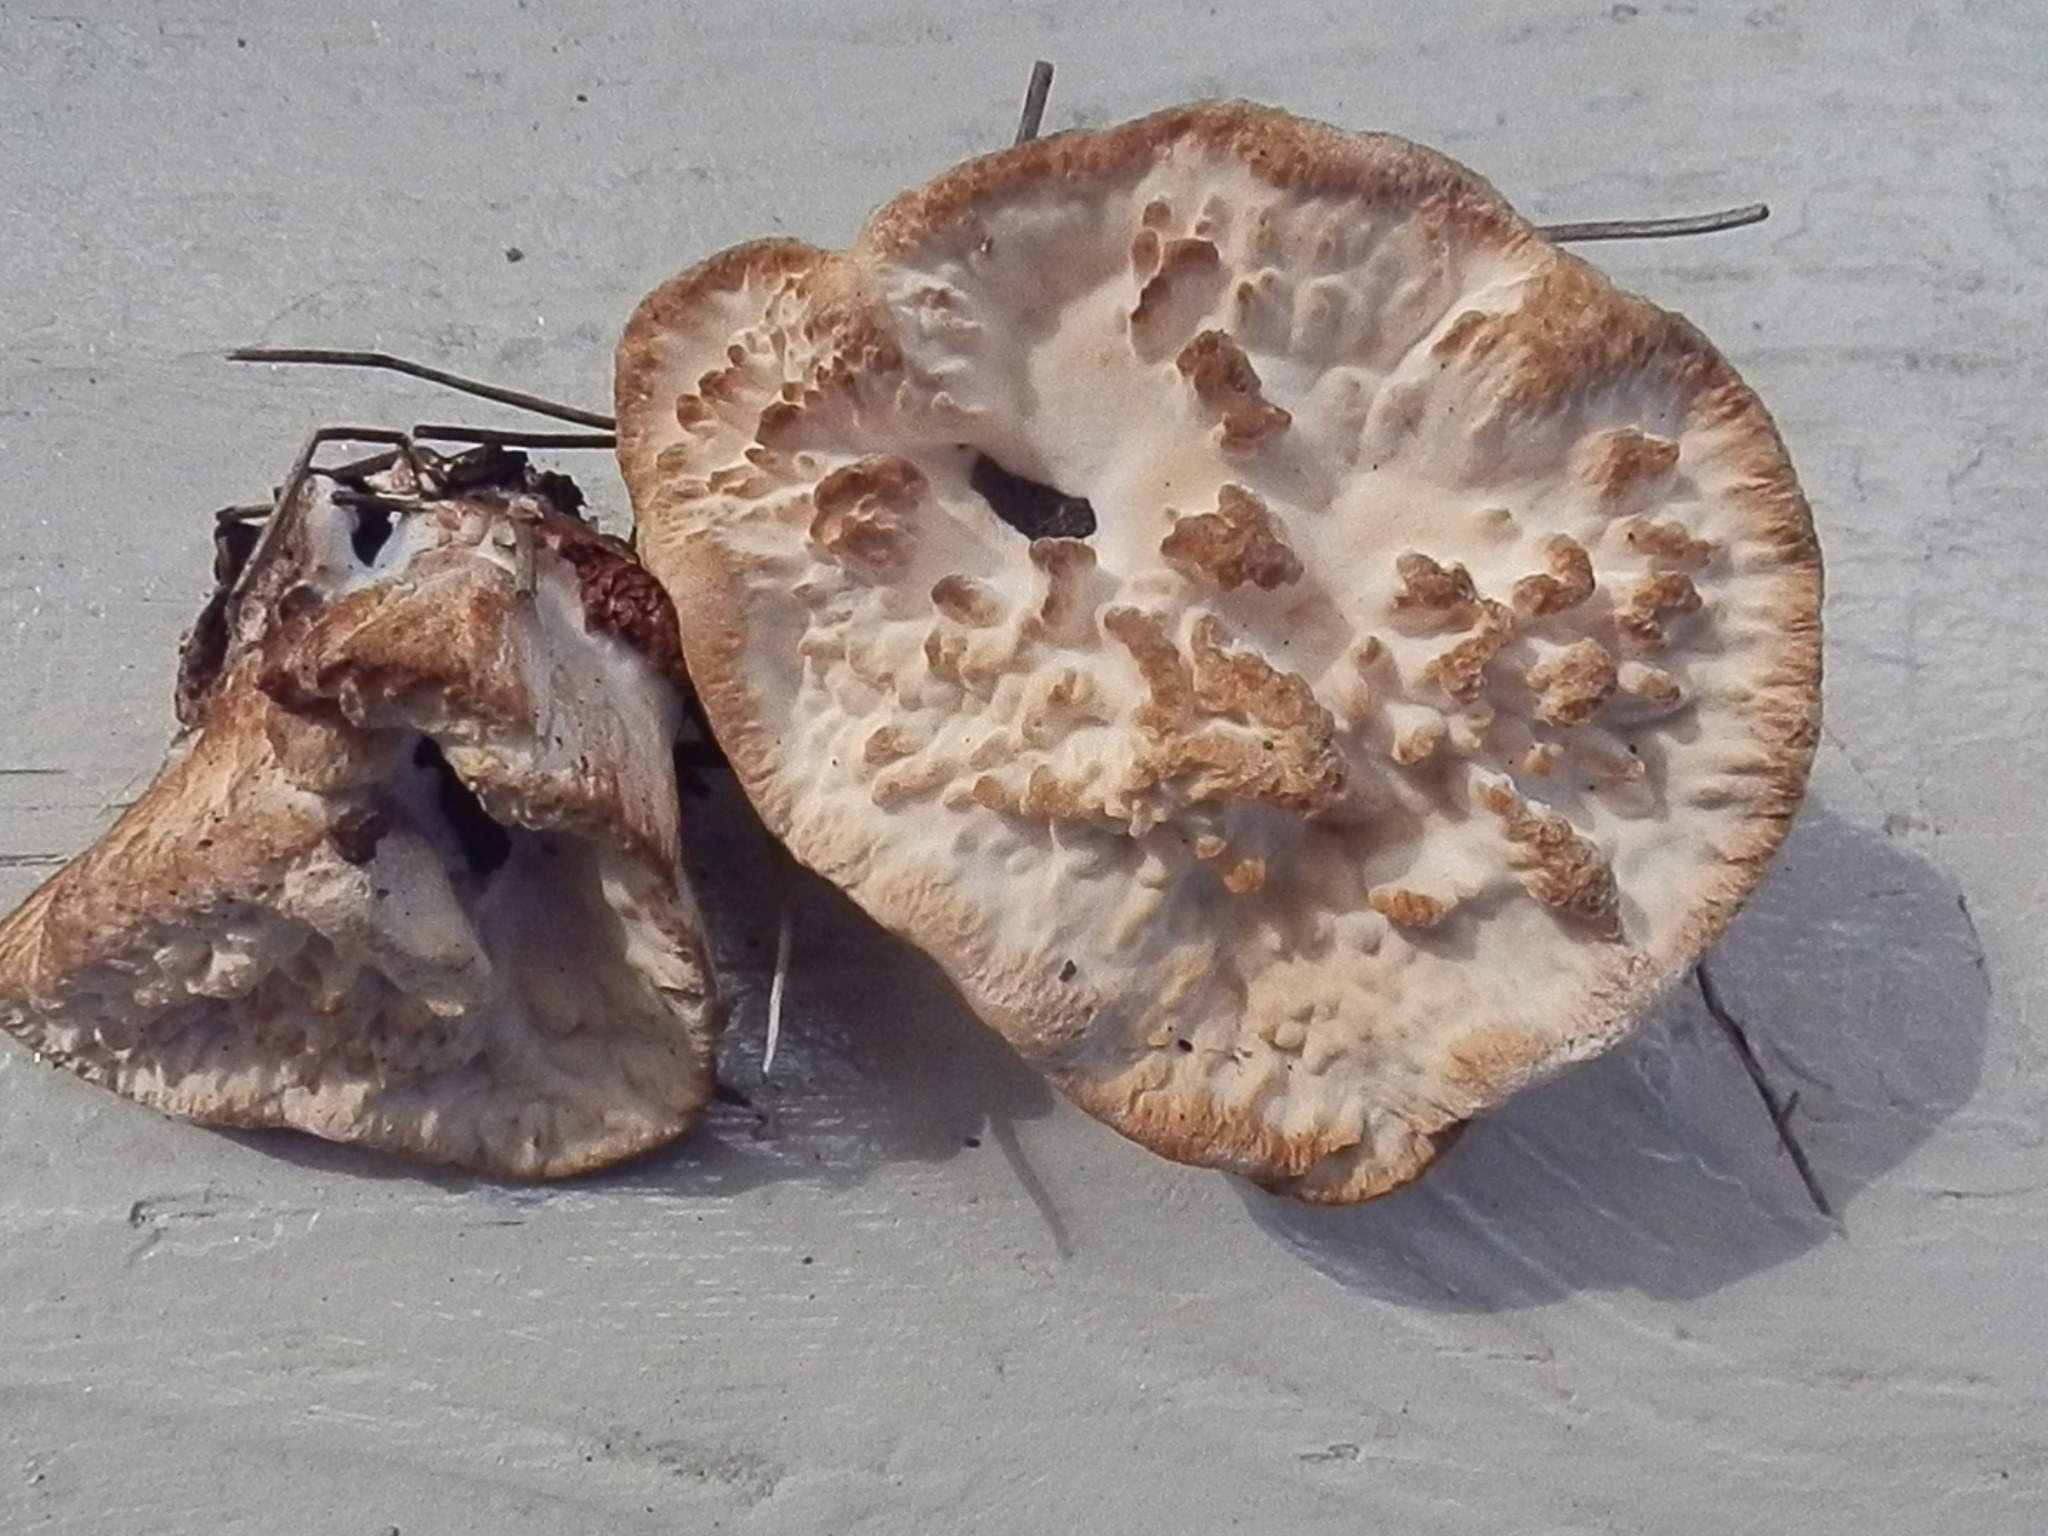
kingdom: Fungi
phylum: Basidiomycota
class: Agaricomycetes
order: Polyporales
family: Podoscyphaceae
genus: Abortiporus
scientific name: Abortiporus biennis
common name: Blushing rosette
